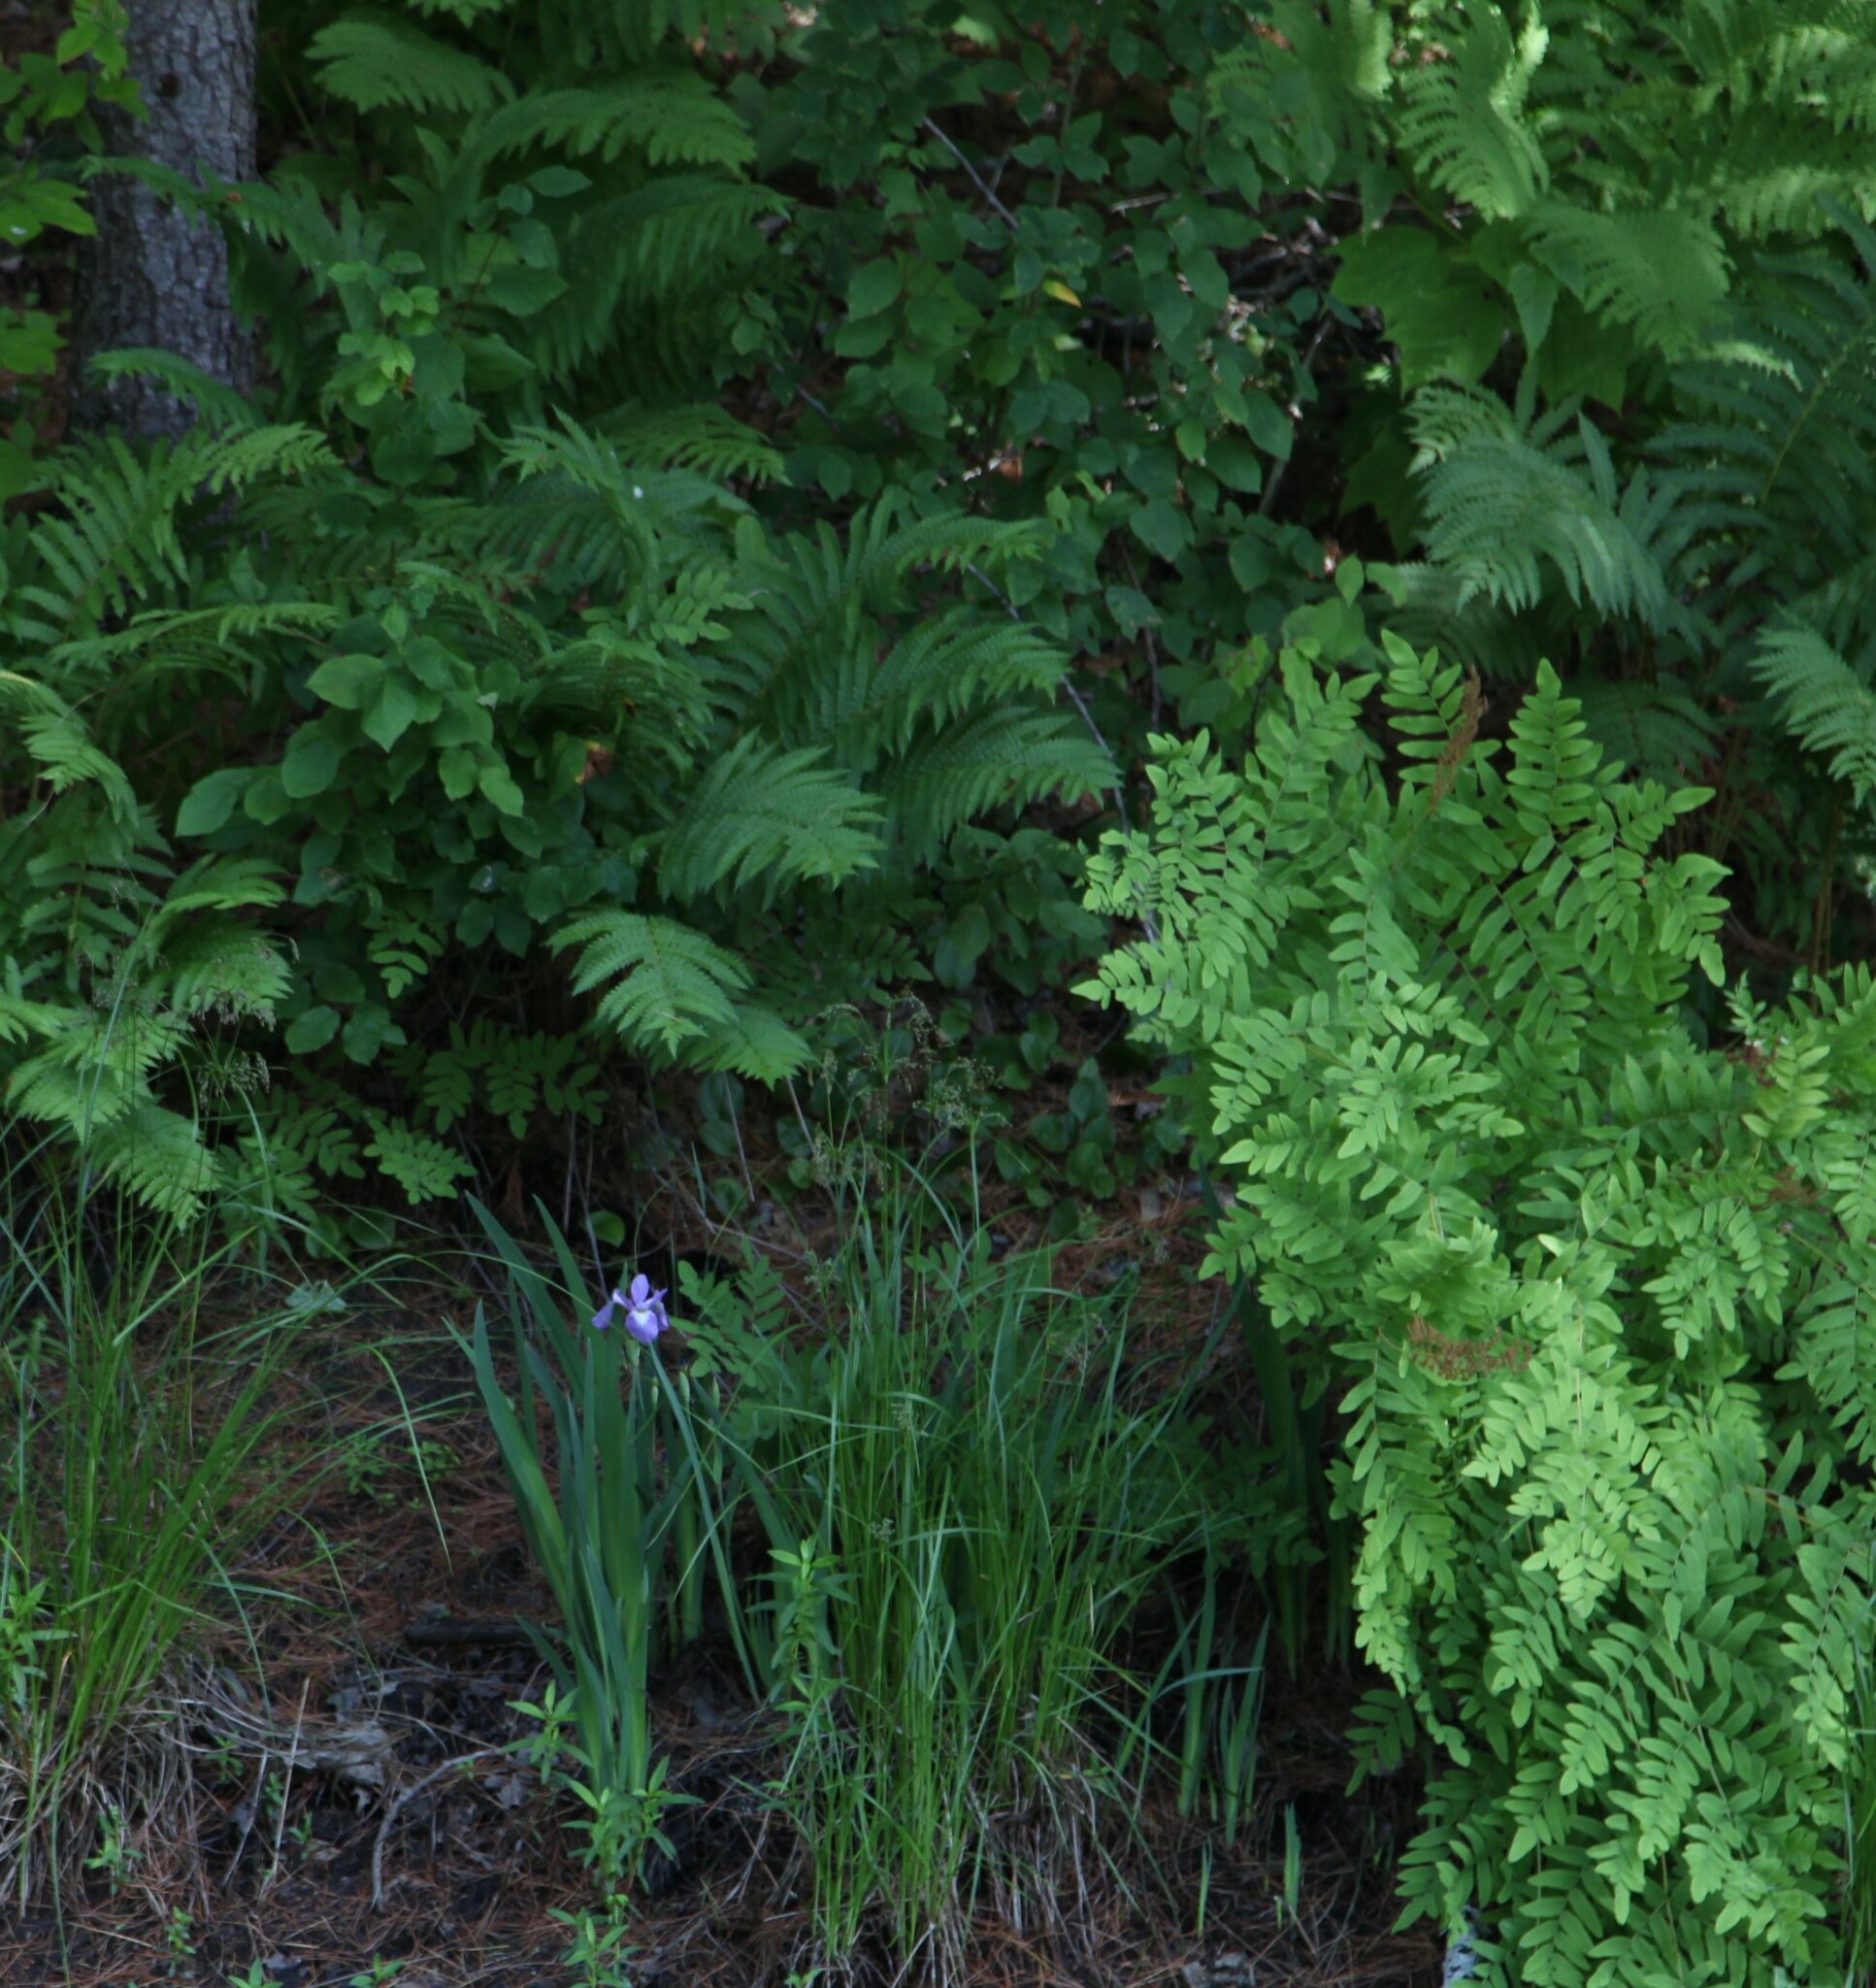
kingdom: Plantae
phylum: Tracheophyta
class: Liliopsida
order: Asparagales
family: Iridaceae
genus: Iris
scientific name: Iris versicolor
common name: Purple iris
